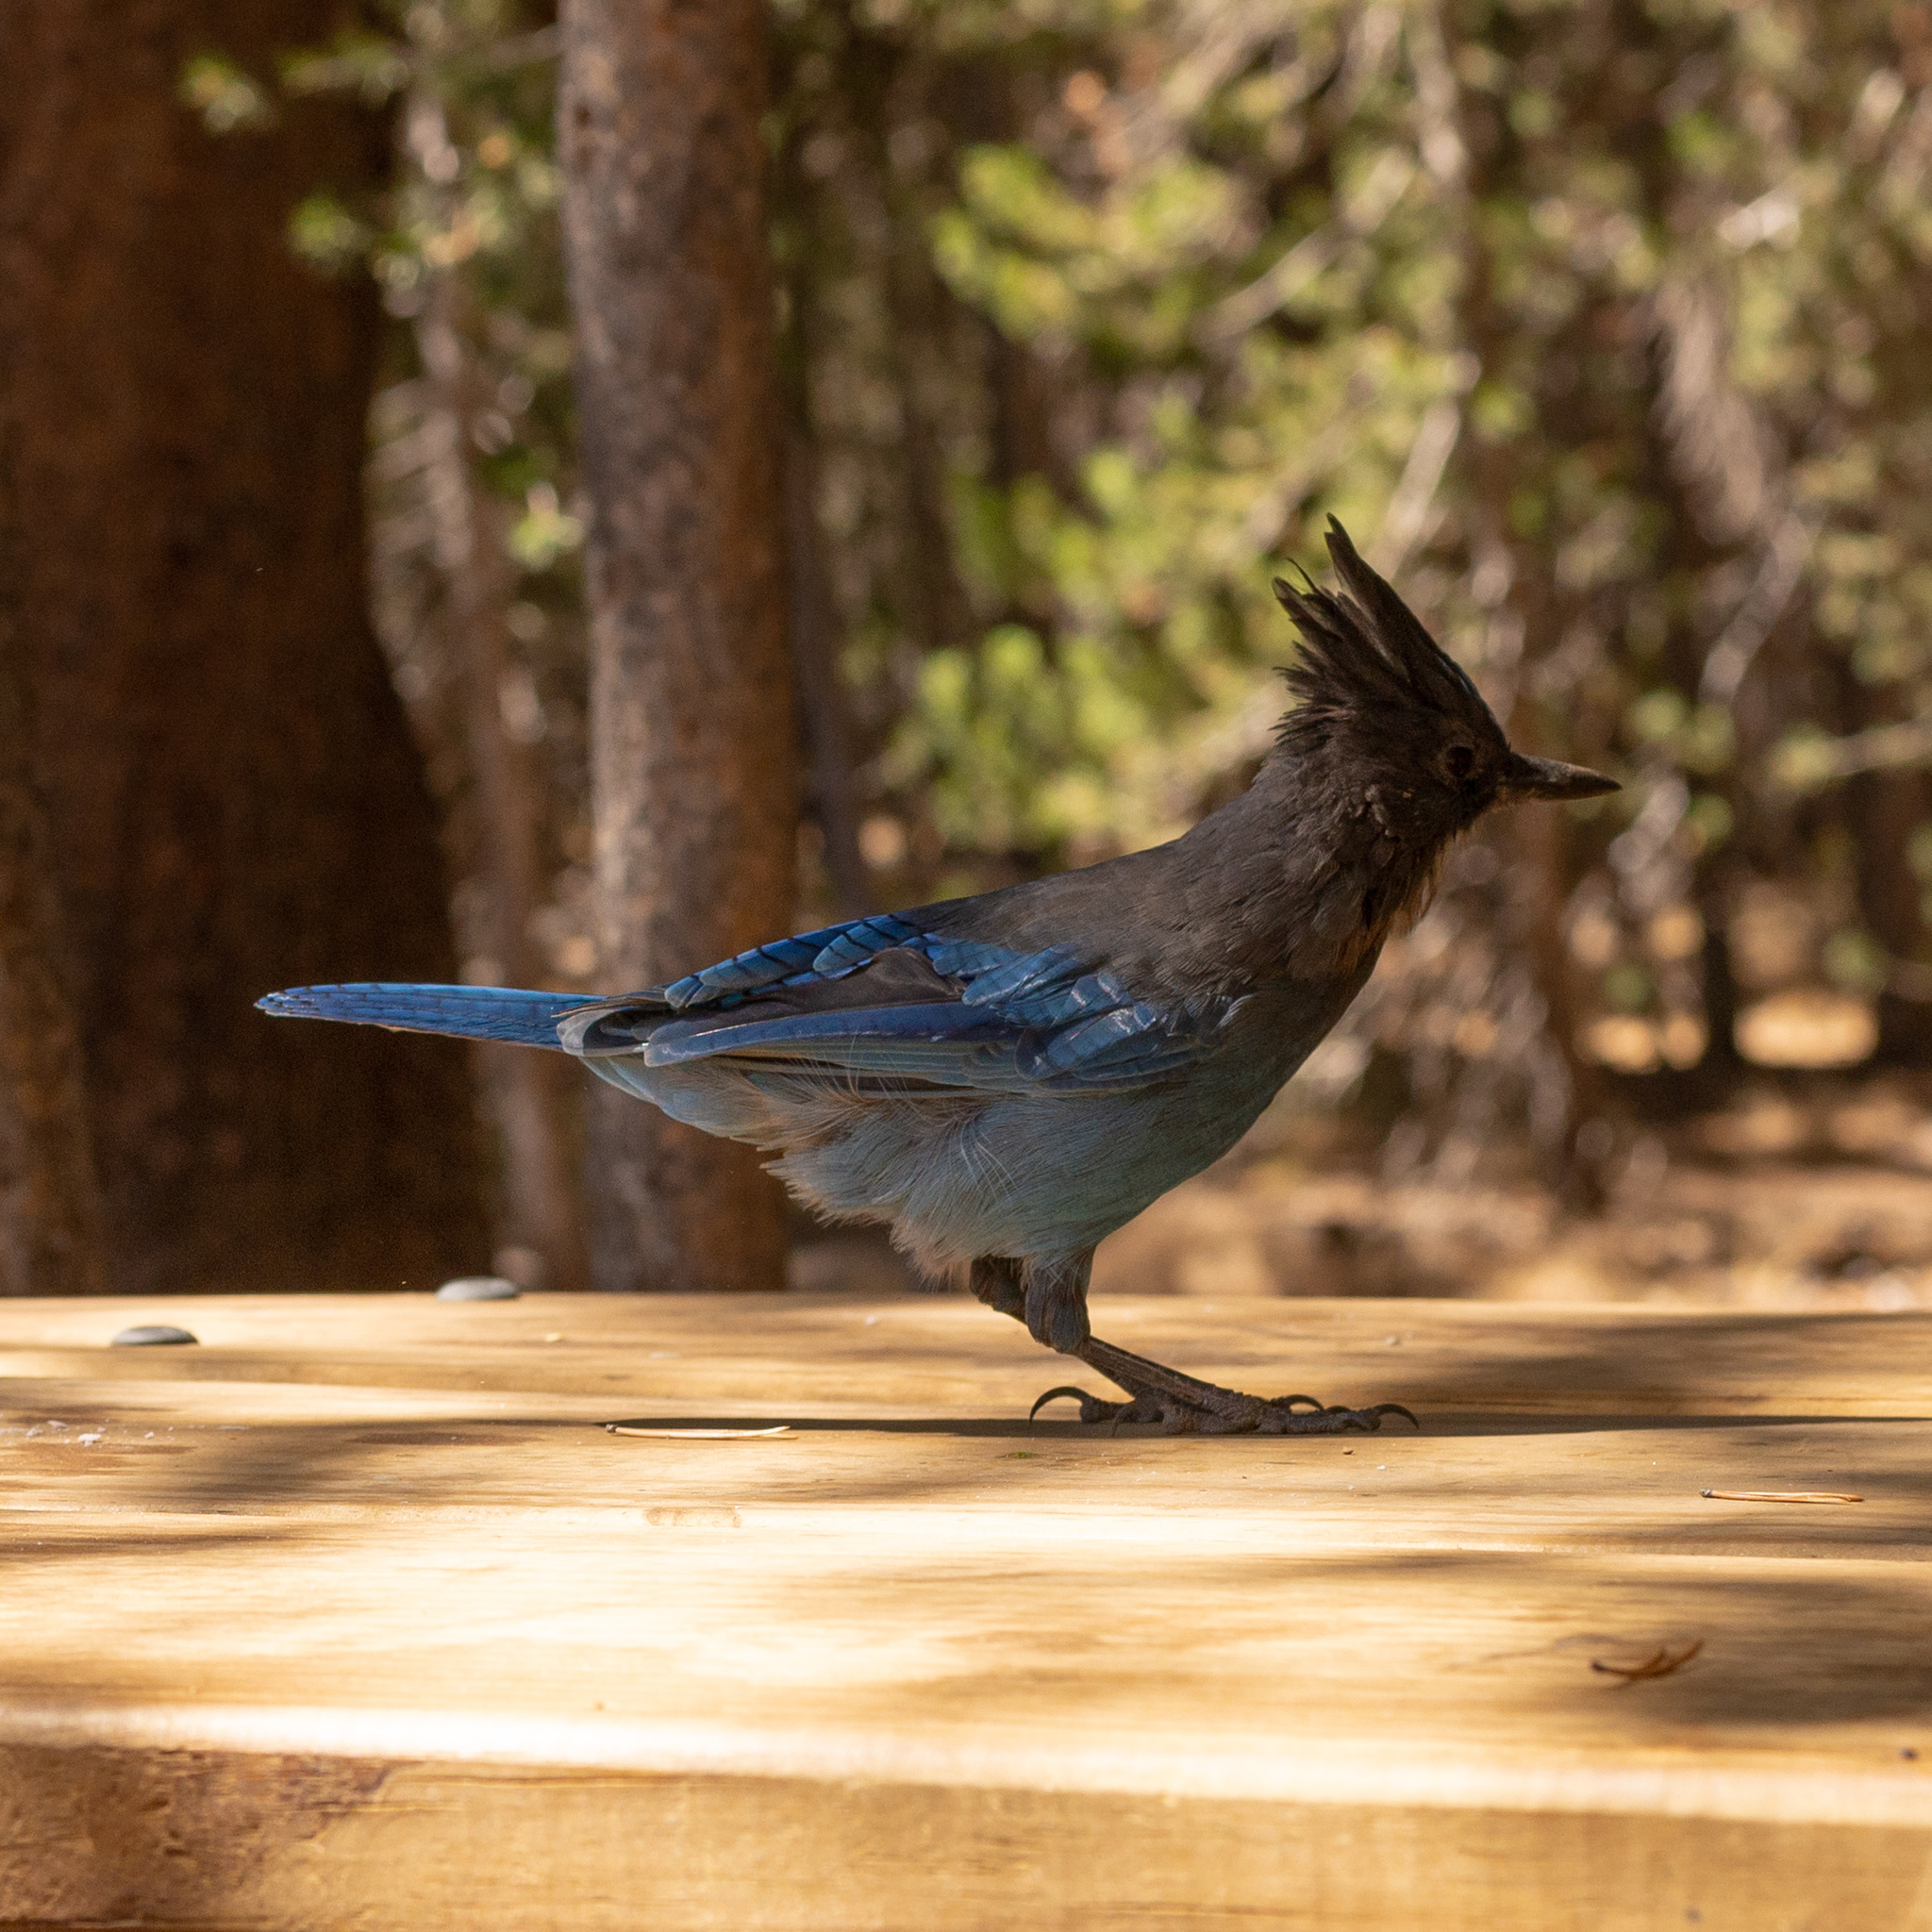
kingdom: Animalia
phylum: Chordata
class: Aves
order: Passeriformes
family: Corvidae
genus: Cyanocitta
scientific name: Cyanocitta stelleri
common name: Steller's jay
